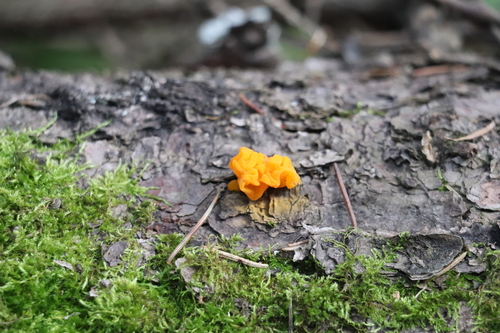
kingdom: Fungi
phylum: Basidiomycota
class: Dacrymycetes
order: Dacrymycetales
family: Dacrymycetaceae
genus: Dacrymyces
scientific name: Dacrymyces chrysospermus
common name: Orange jelly spot
